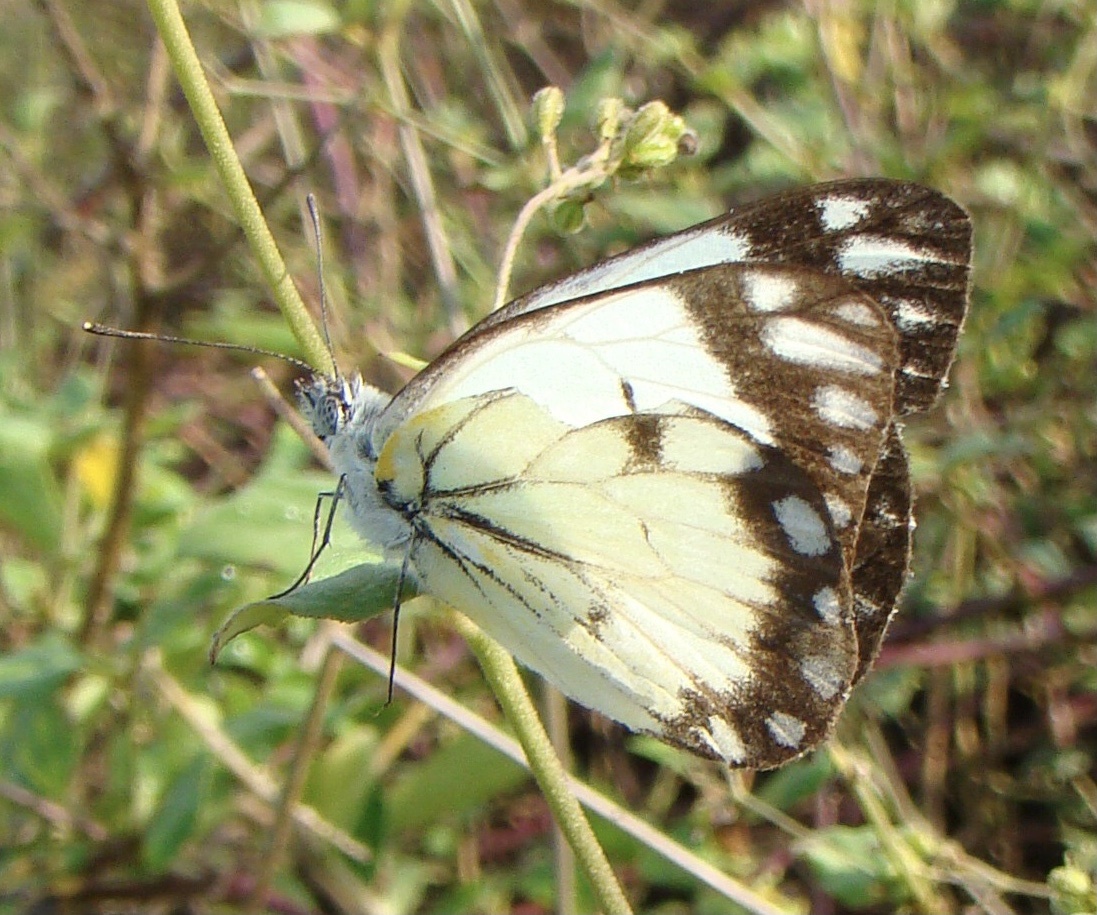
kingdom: Animalia
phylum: Arthropoda
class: Insecta
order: Lepidoptera
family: Pieridae
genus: Belenois
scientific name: Belenois creona
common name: African caper white
